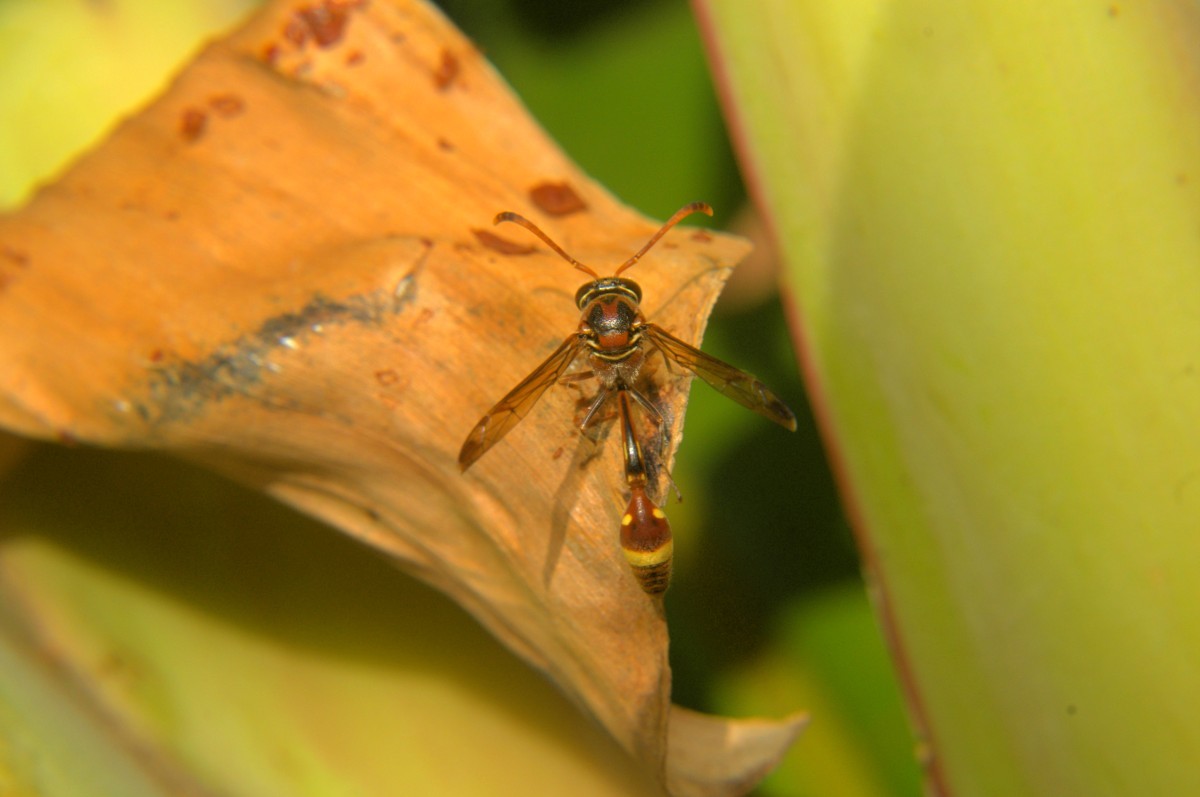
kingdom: Animalia
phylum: Arthropoda
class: Insecta
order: Hymenoptera
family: Eumenidae
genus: Oreumenoides
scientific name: Oreumenoides edwardsii
